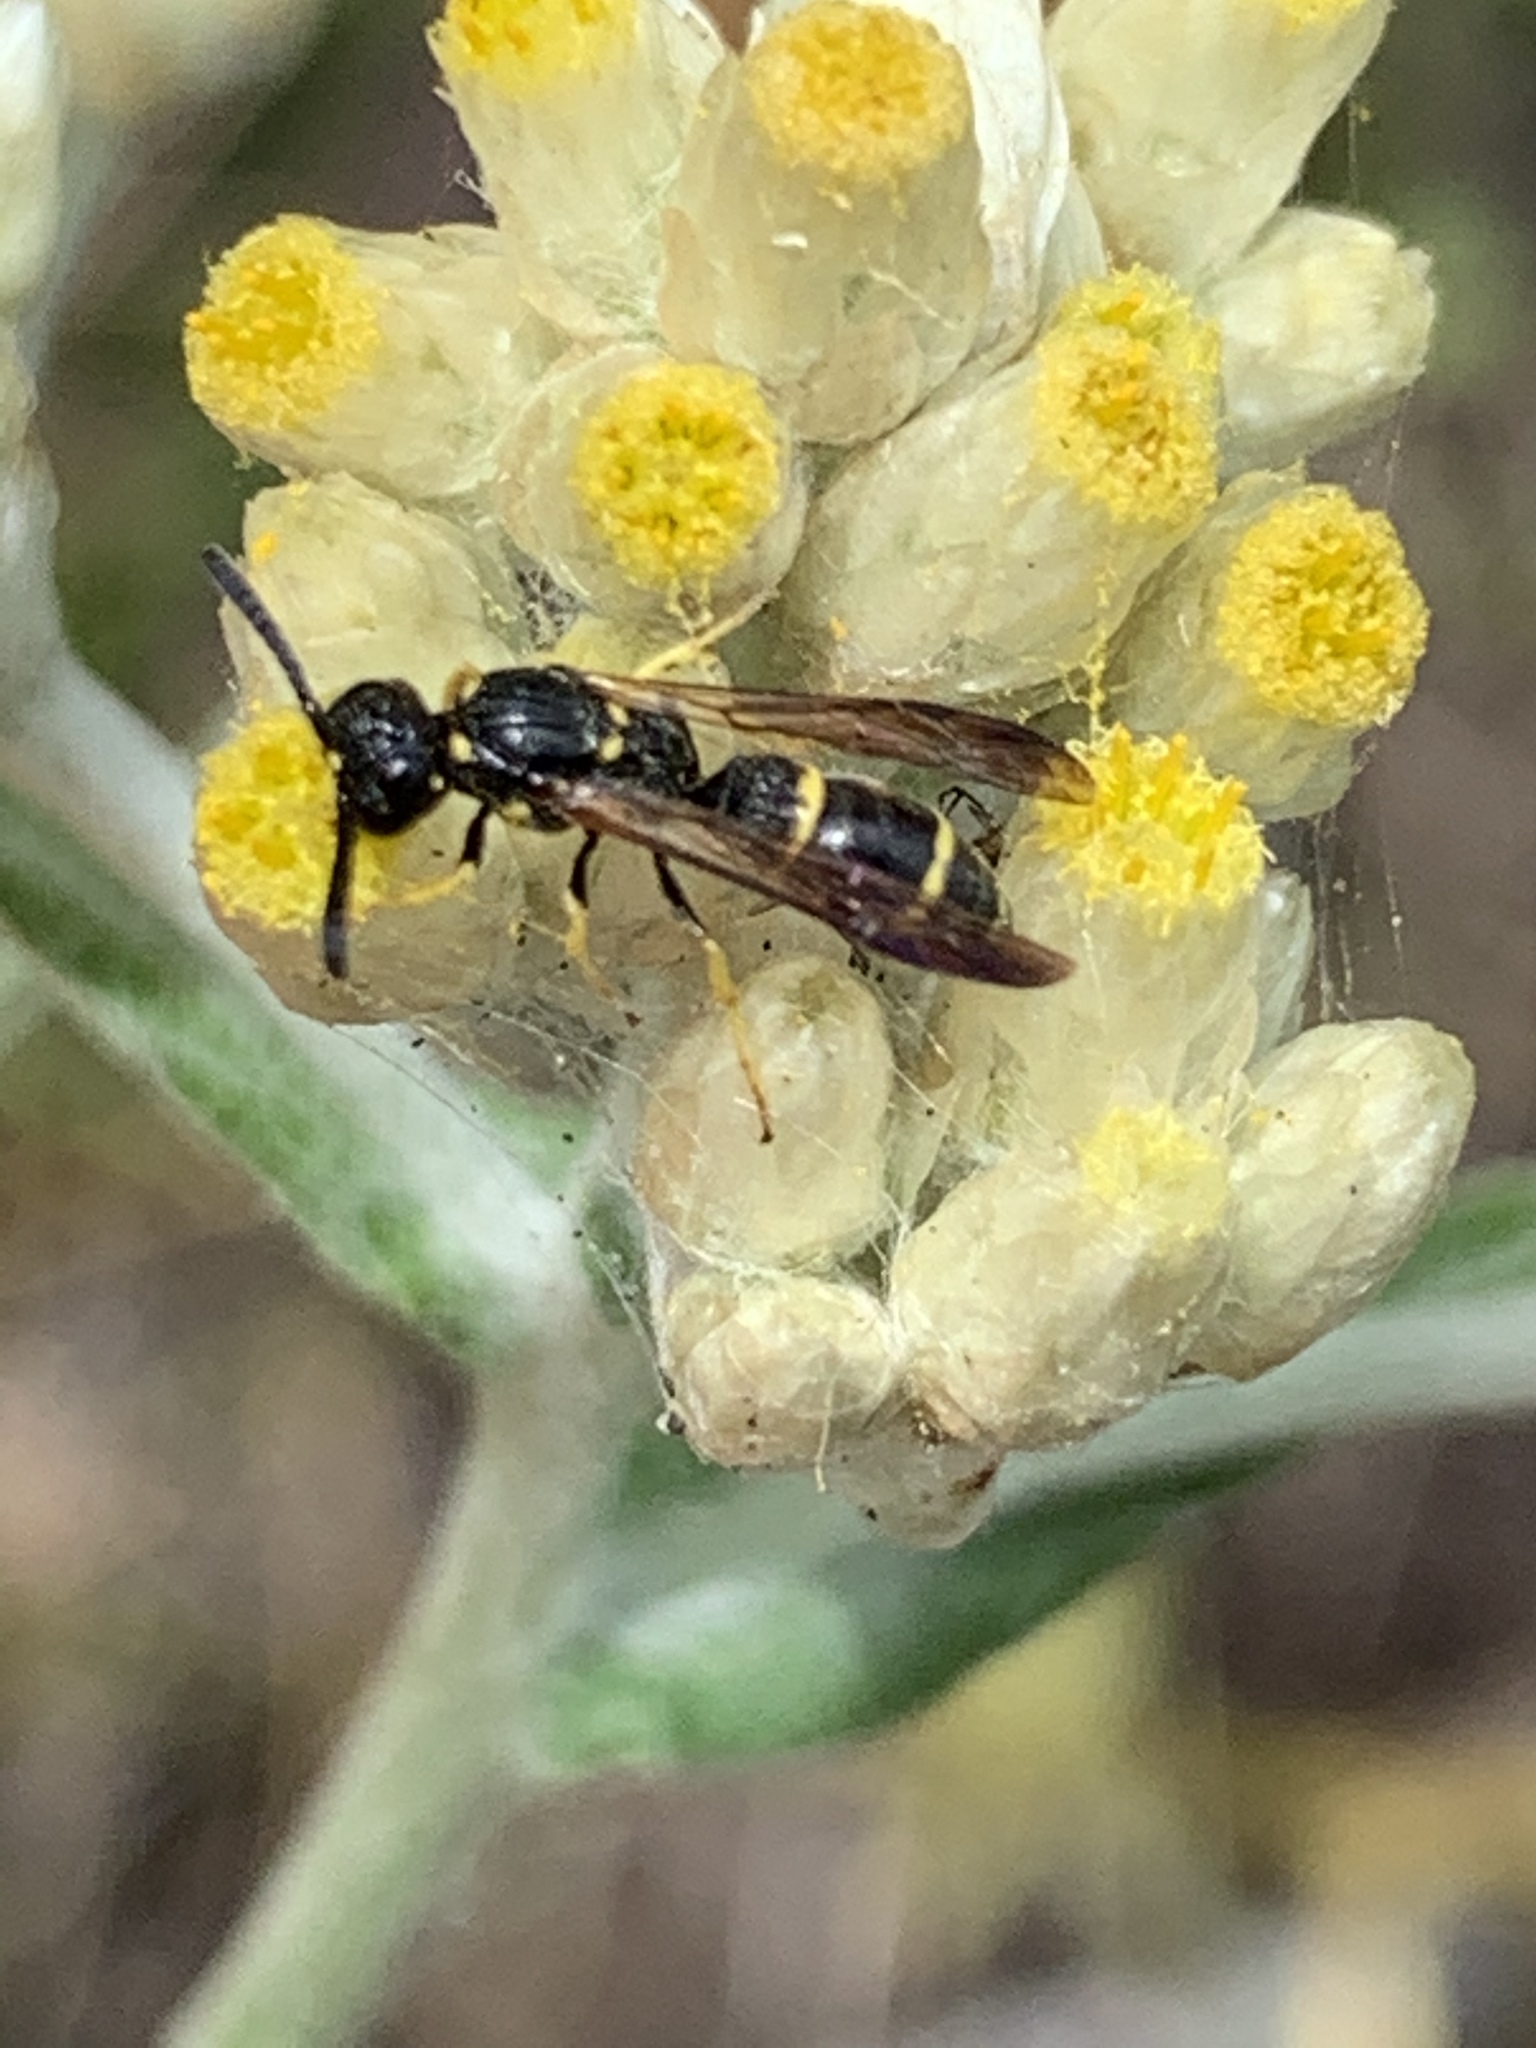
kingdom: Animalia
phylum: Arthropoda
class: Insecta
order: Hymenoptera
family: Eumenidae
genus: Symmorphus
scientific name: Symmorphus
